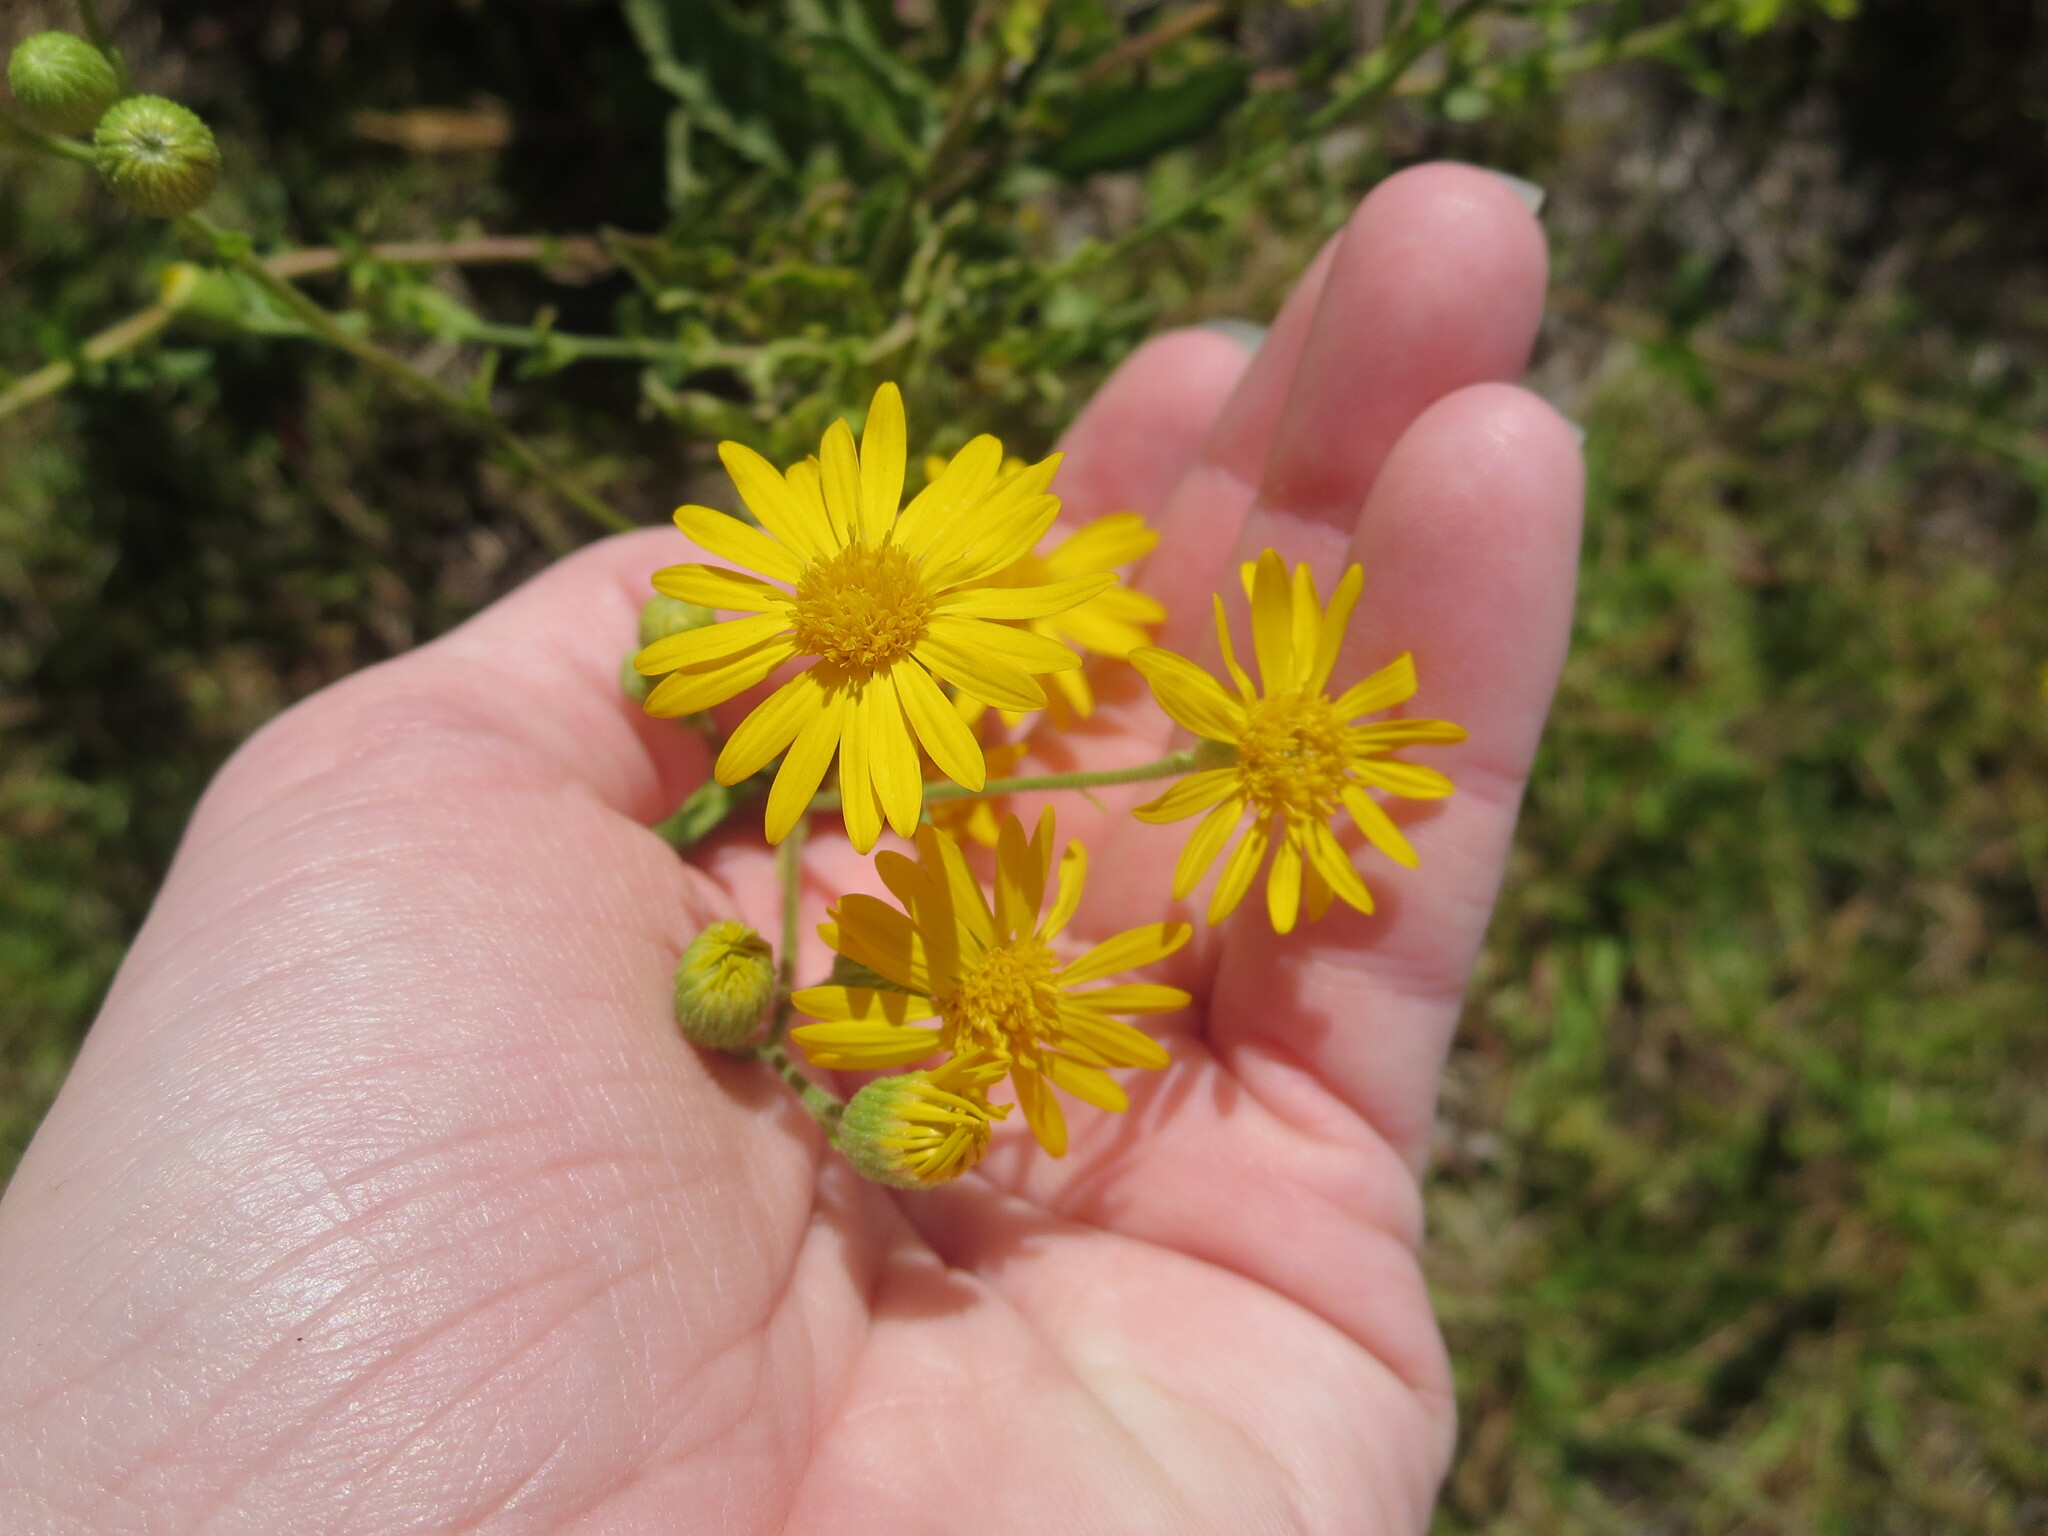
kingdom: Plantae
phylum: Tracheophyta
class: Magnoliopsida
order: Asterales
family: Asteraceae
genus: Heterotheca
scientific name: Heterotheca subaxillaris
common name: Camphorweed
